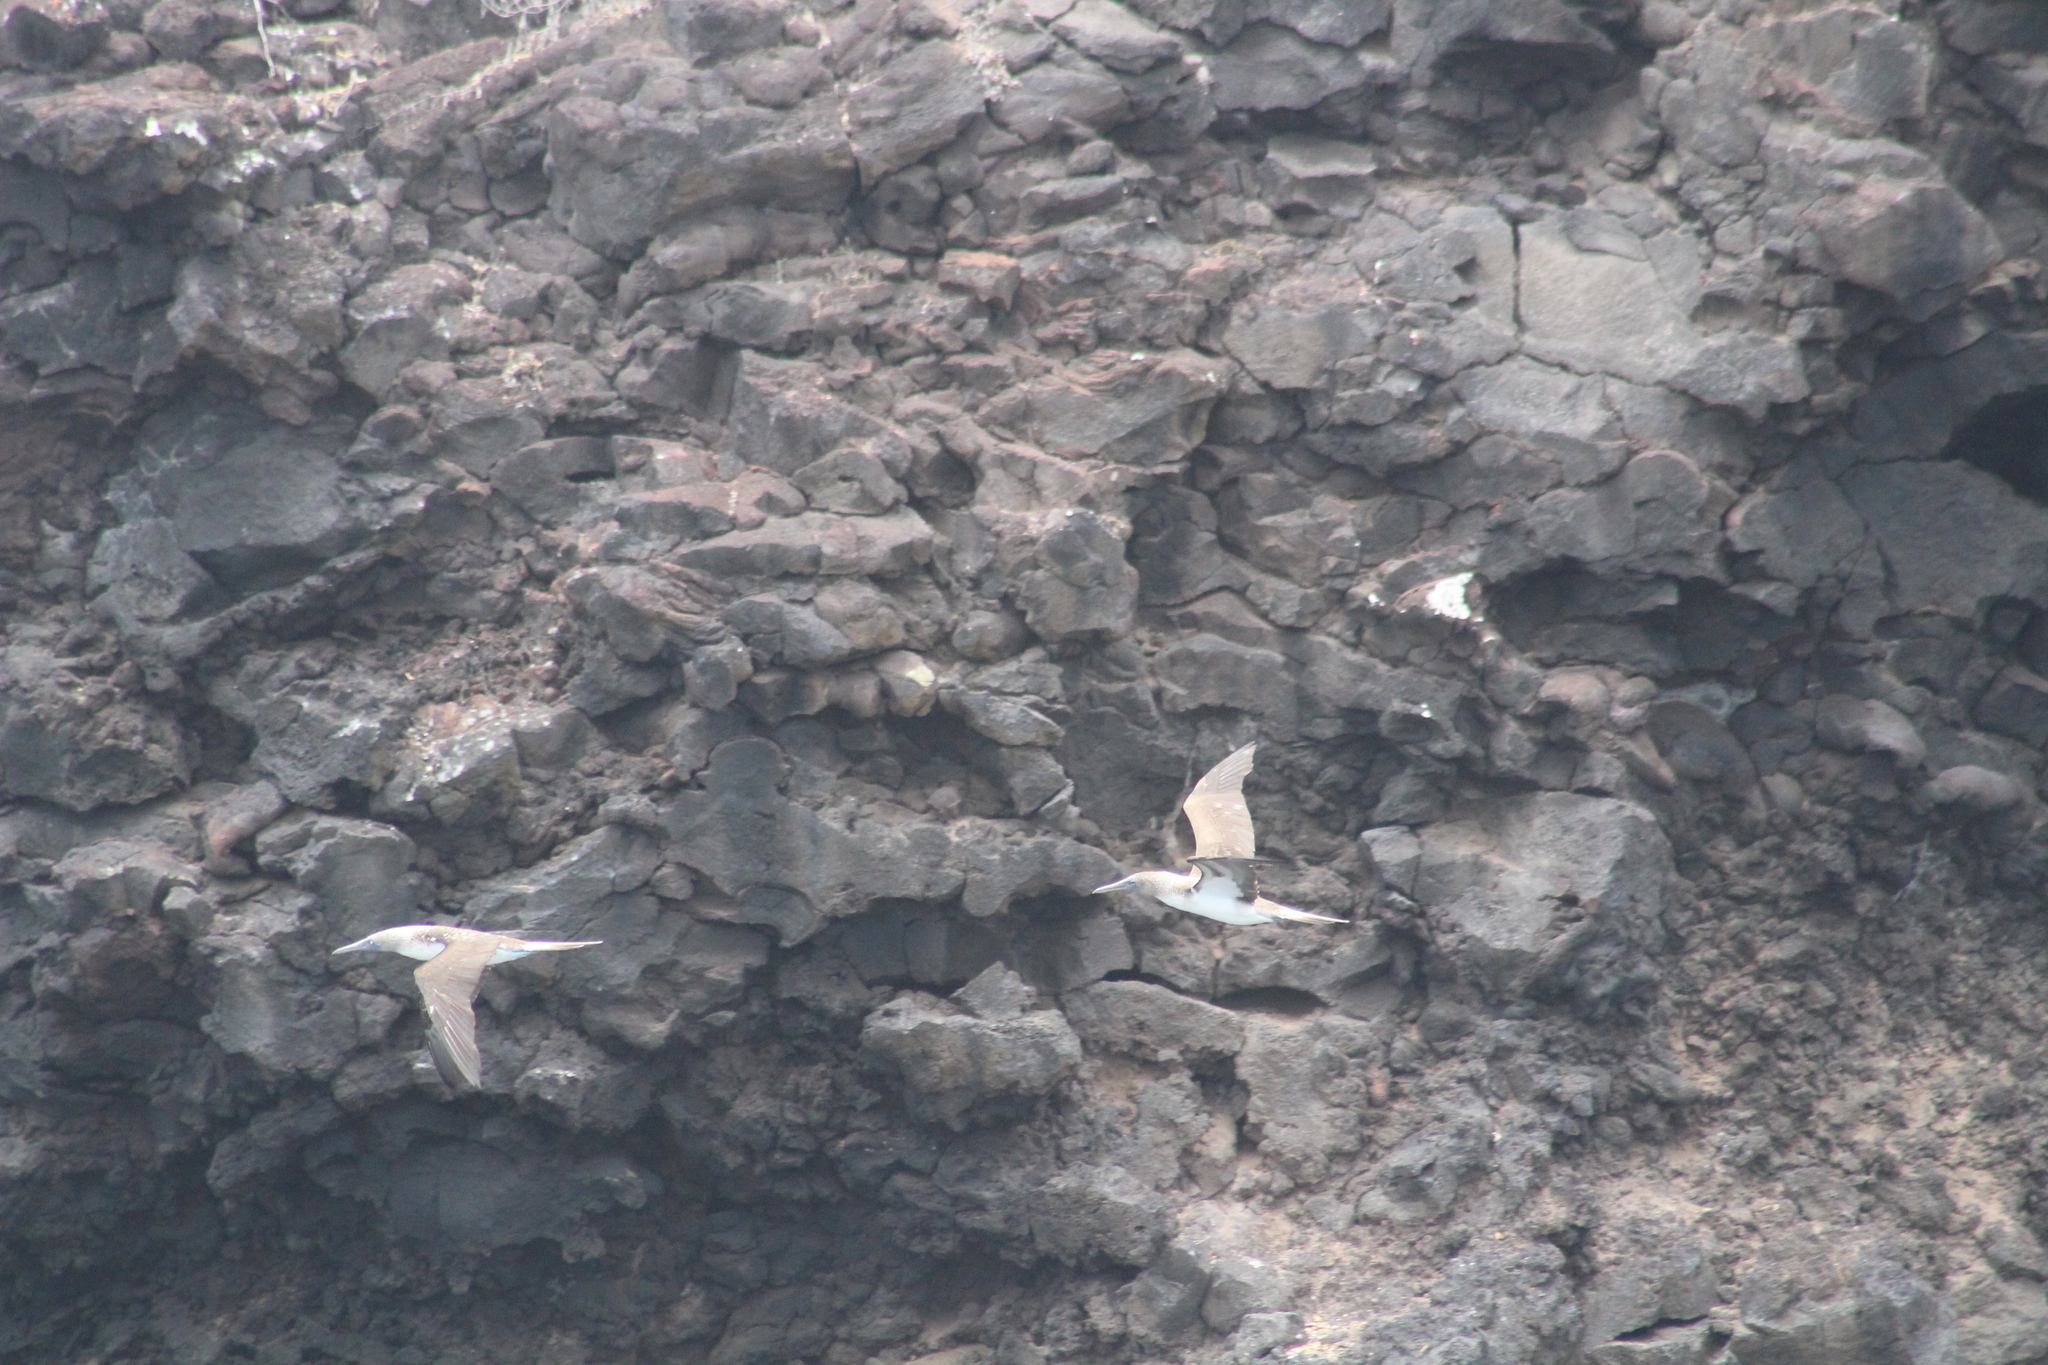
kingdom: Animalia
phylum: Chordata
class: Aves
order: Suliformes
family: Sulidae
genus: Sula
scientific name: Sula nebouxii
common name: Blue-footed booby
